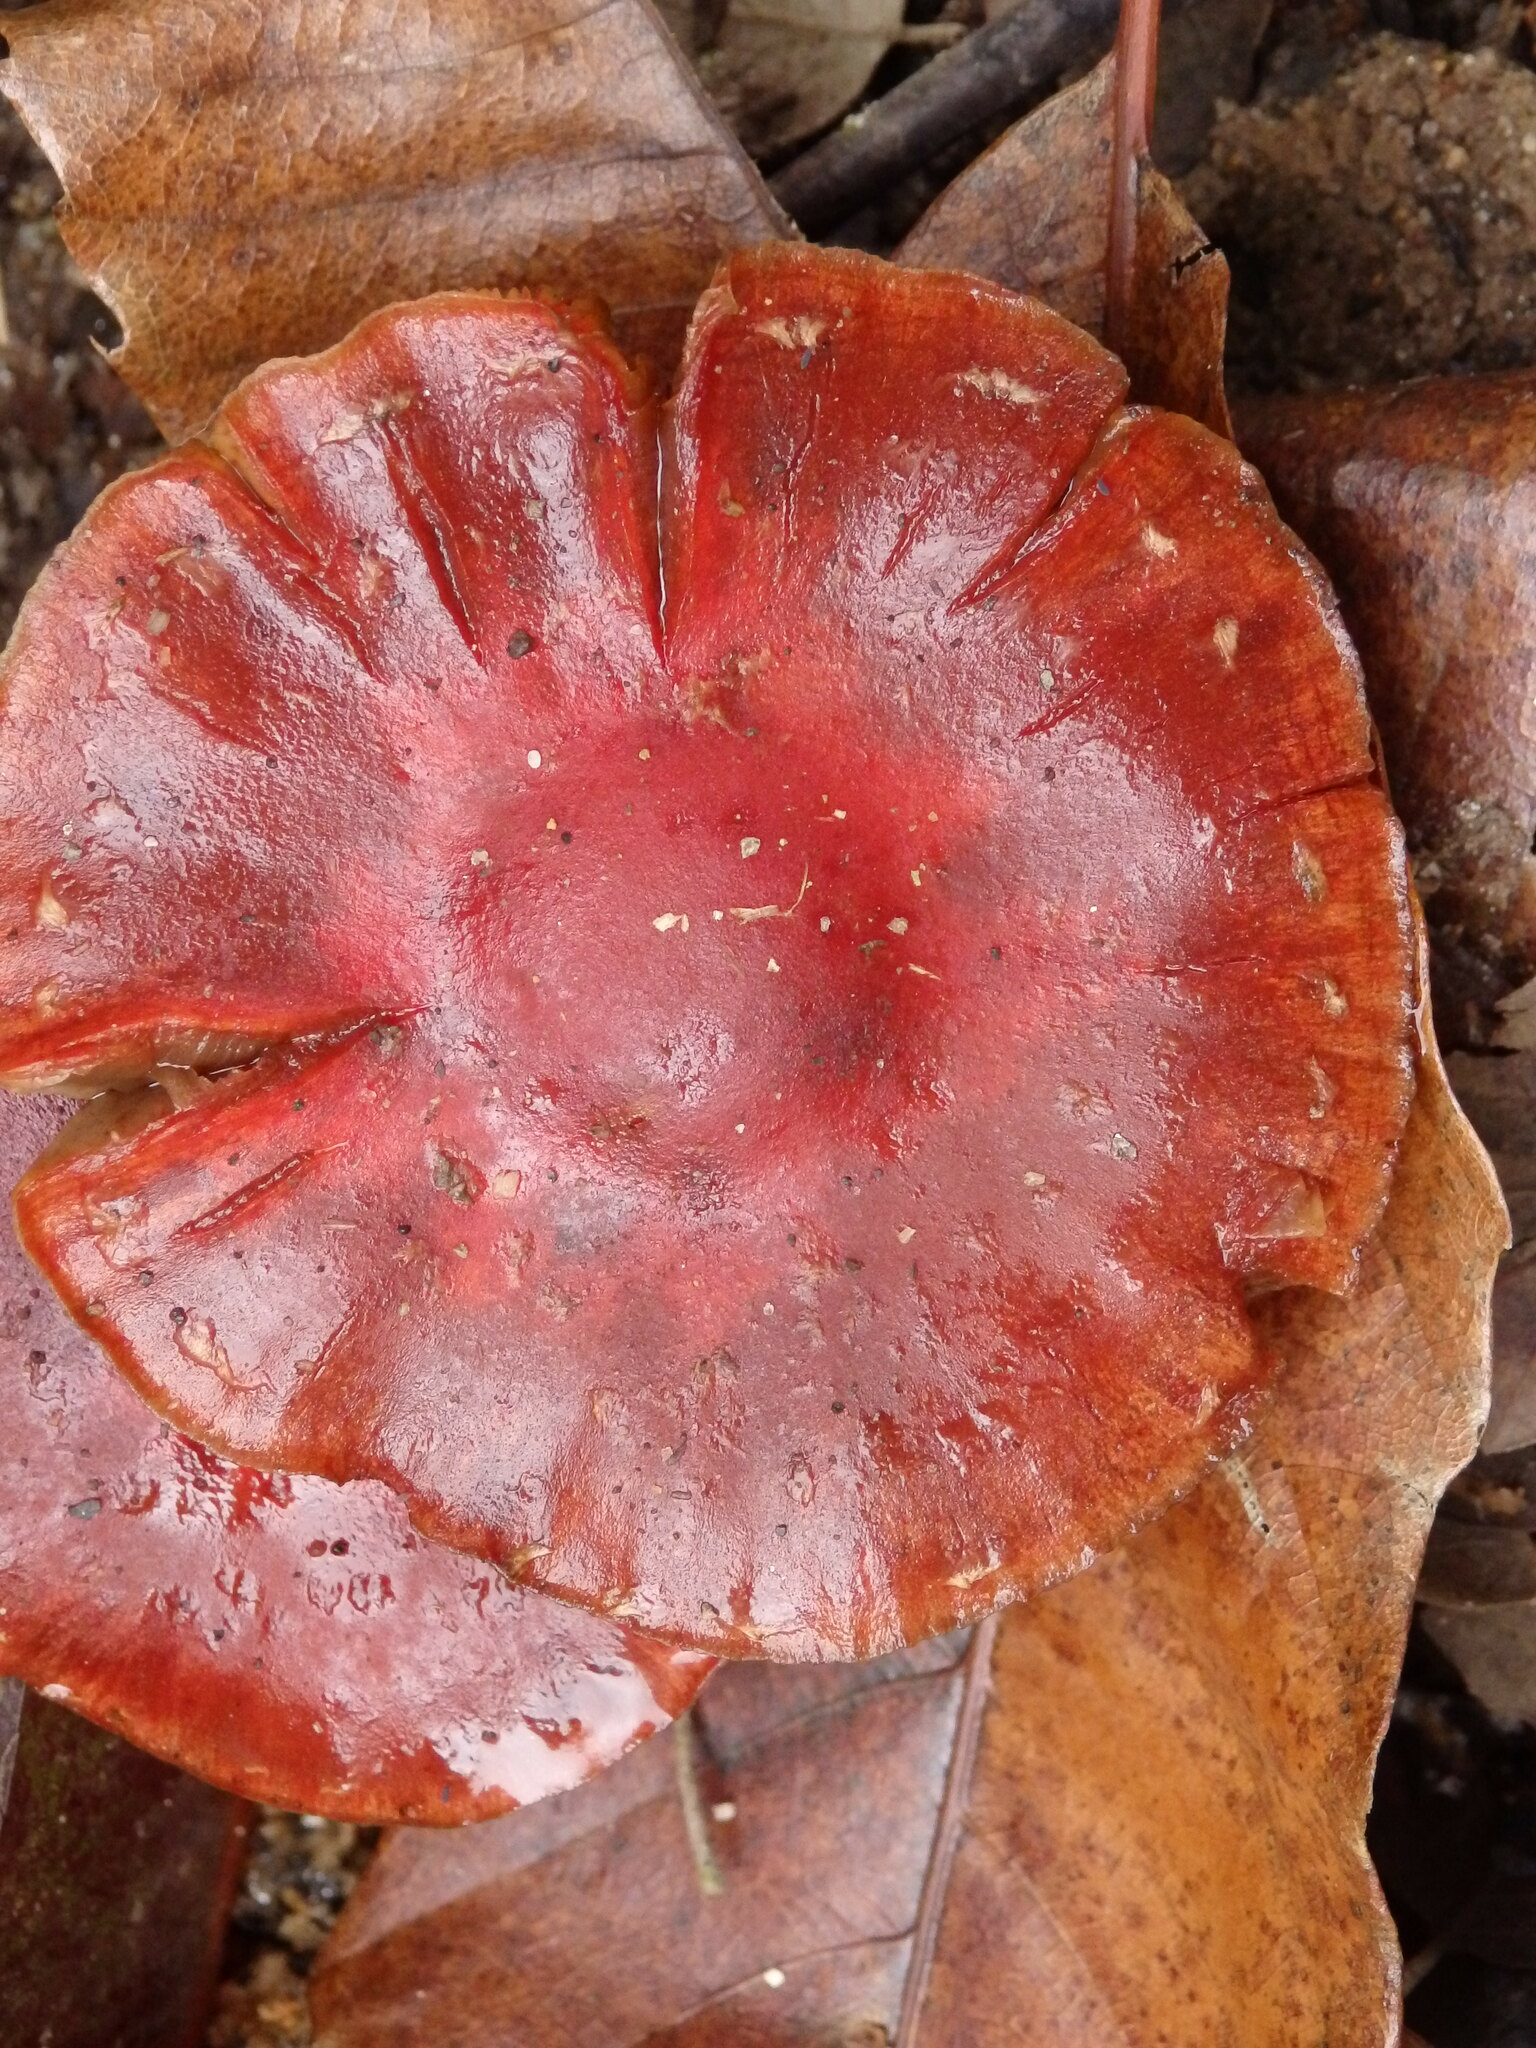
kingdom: Fungi
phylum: Basidiomycota
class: Agaricomycetes
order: Agaricales
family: Strophariaceae
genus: Leratiomyces
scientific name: Leratiomyces ceres
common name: Redlead roundhead
